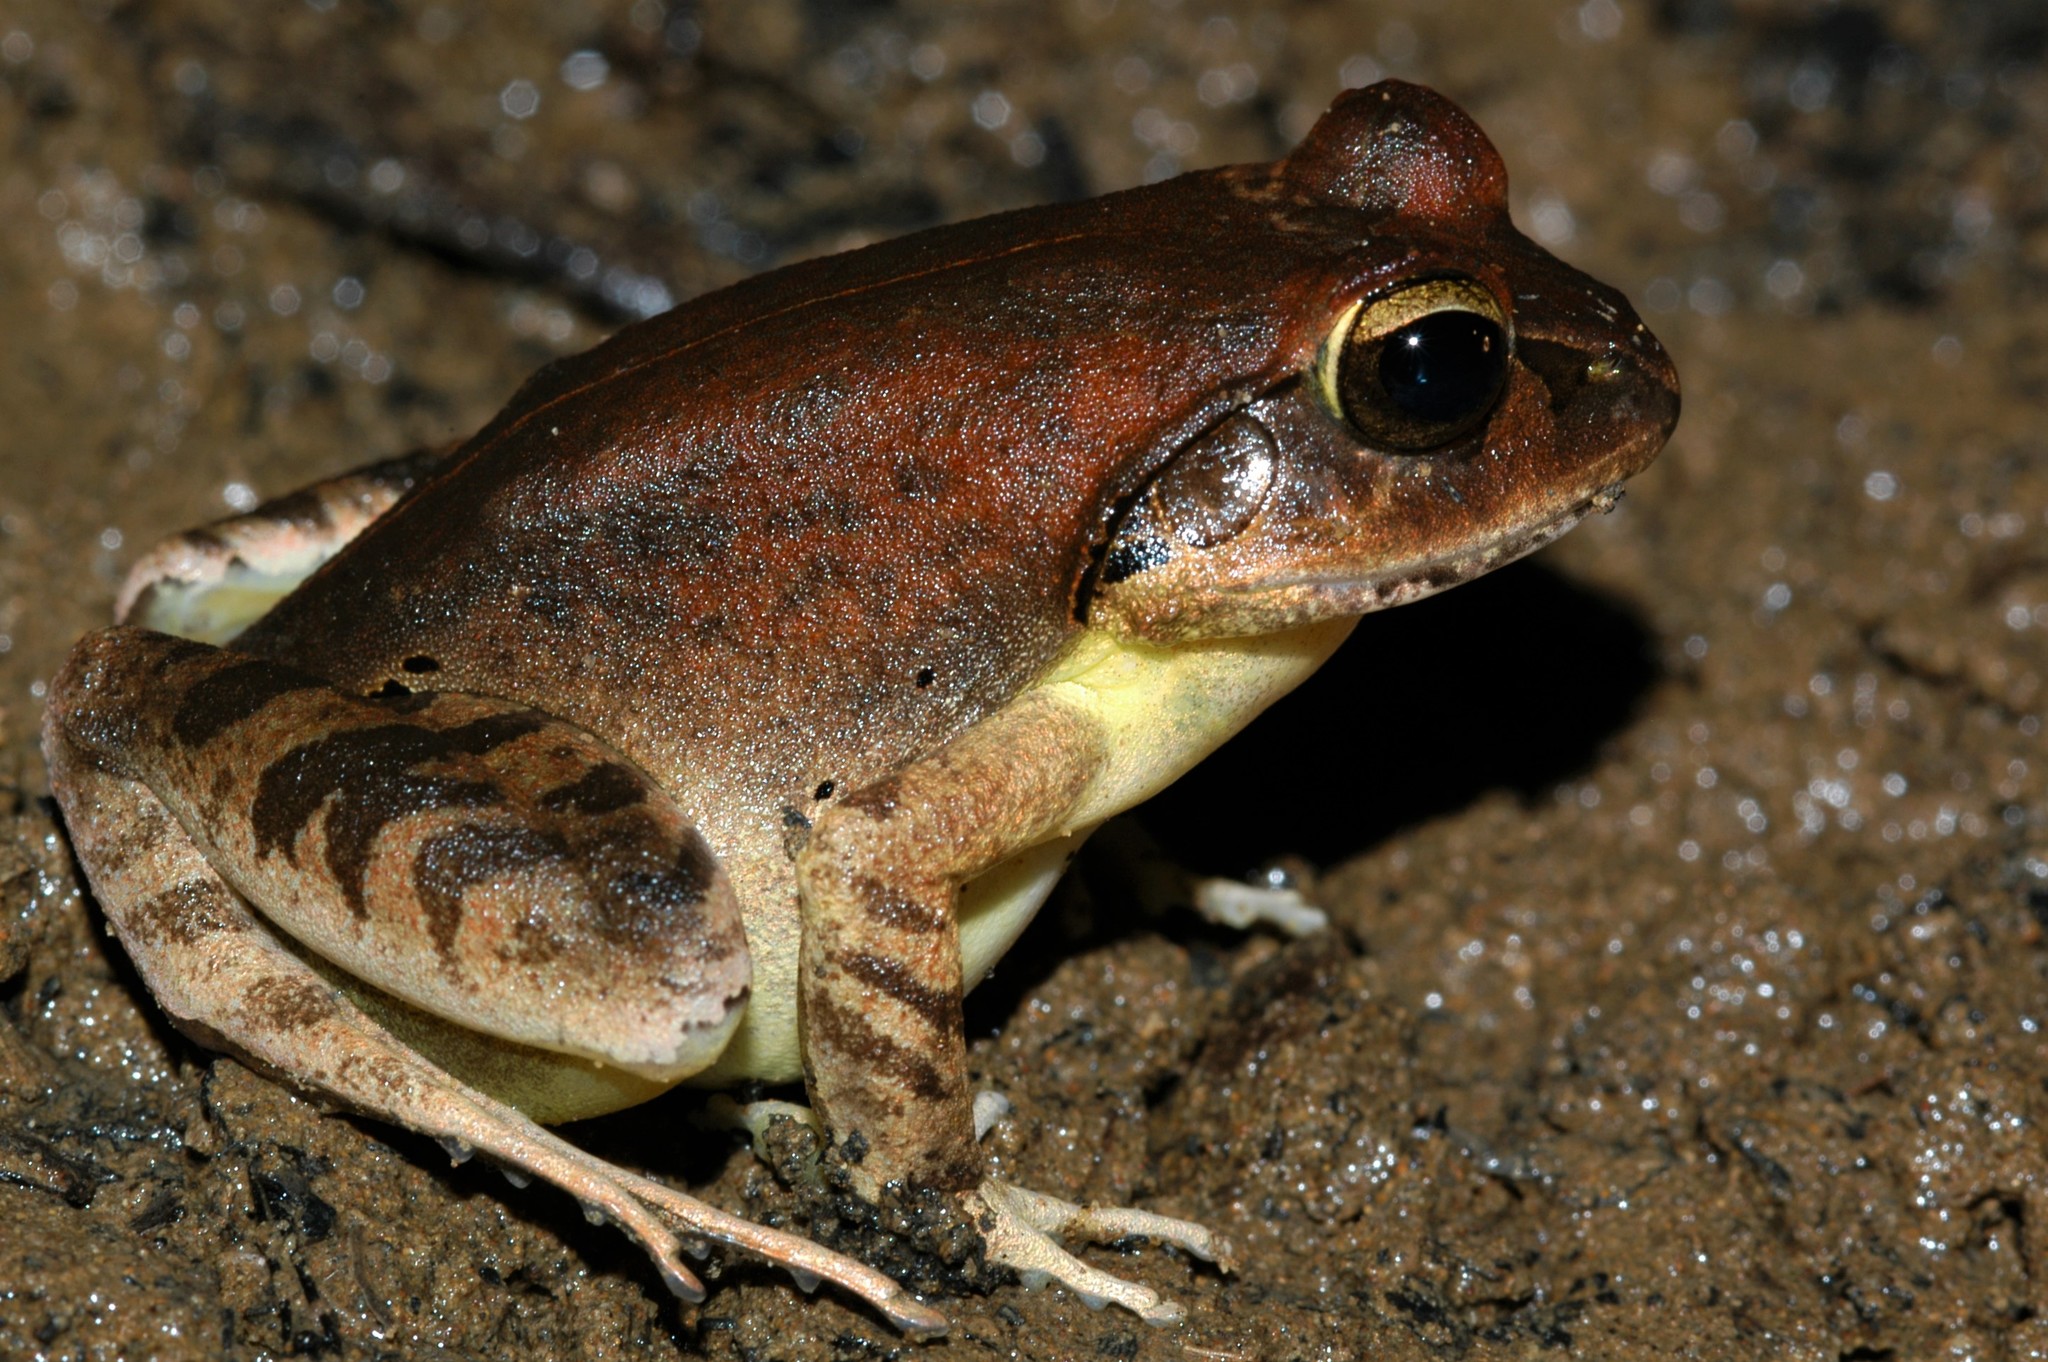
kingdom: Animalia
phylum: Chordata
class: Amphibia
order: Anura
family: Mantellidae
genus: Aglyptodactylus
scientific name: Aglyptodactylus securifer
